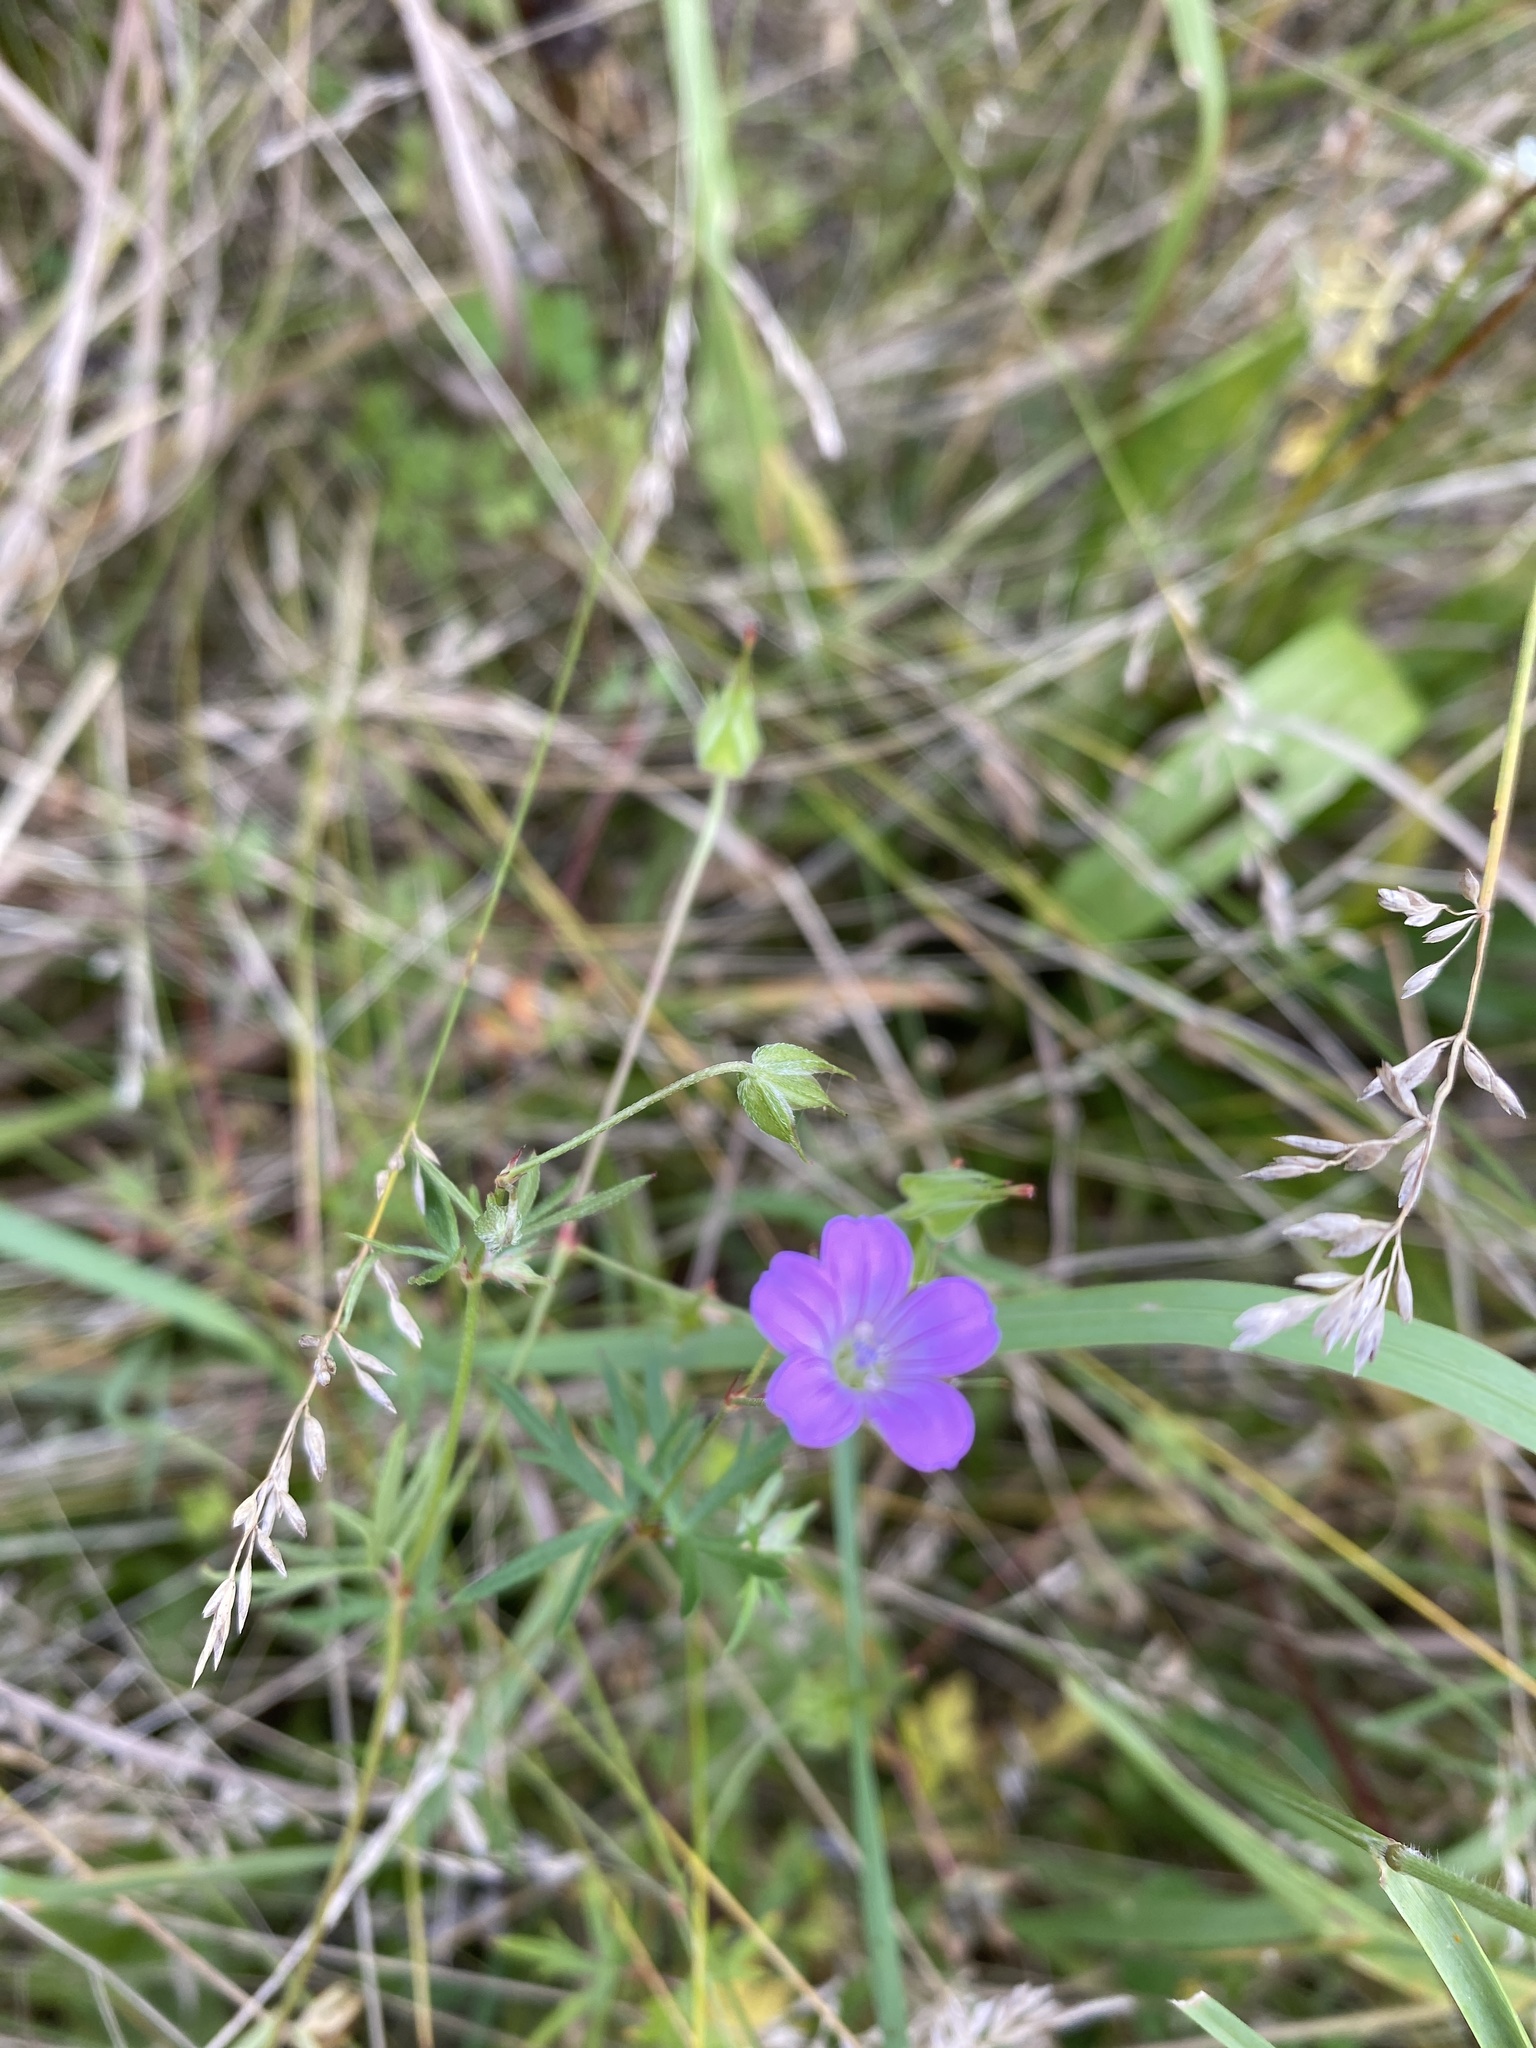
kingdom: Plantae
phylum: Tracheophyta
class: Magnoliopsida
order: Geraniales
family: Geraniaceae
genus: Geranium
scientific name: Geranium columbinum
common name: Long-stalked crane's-bill
